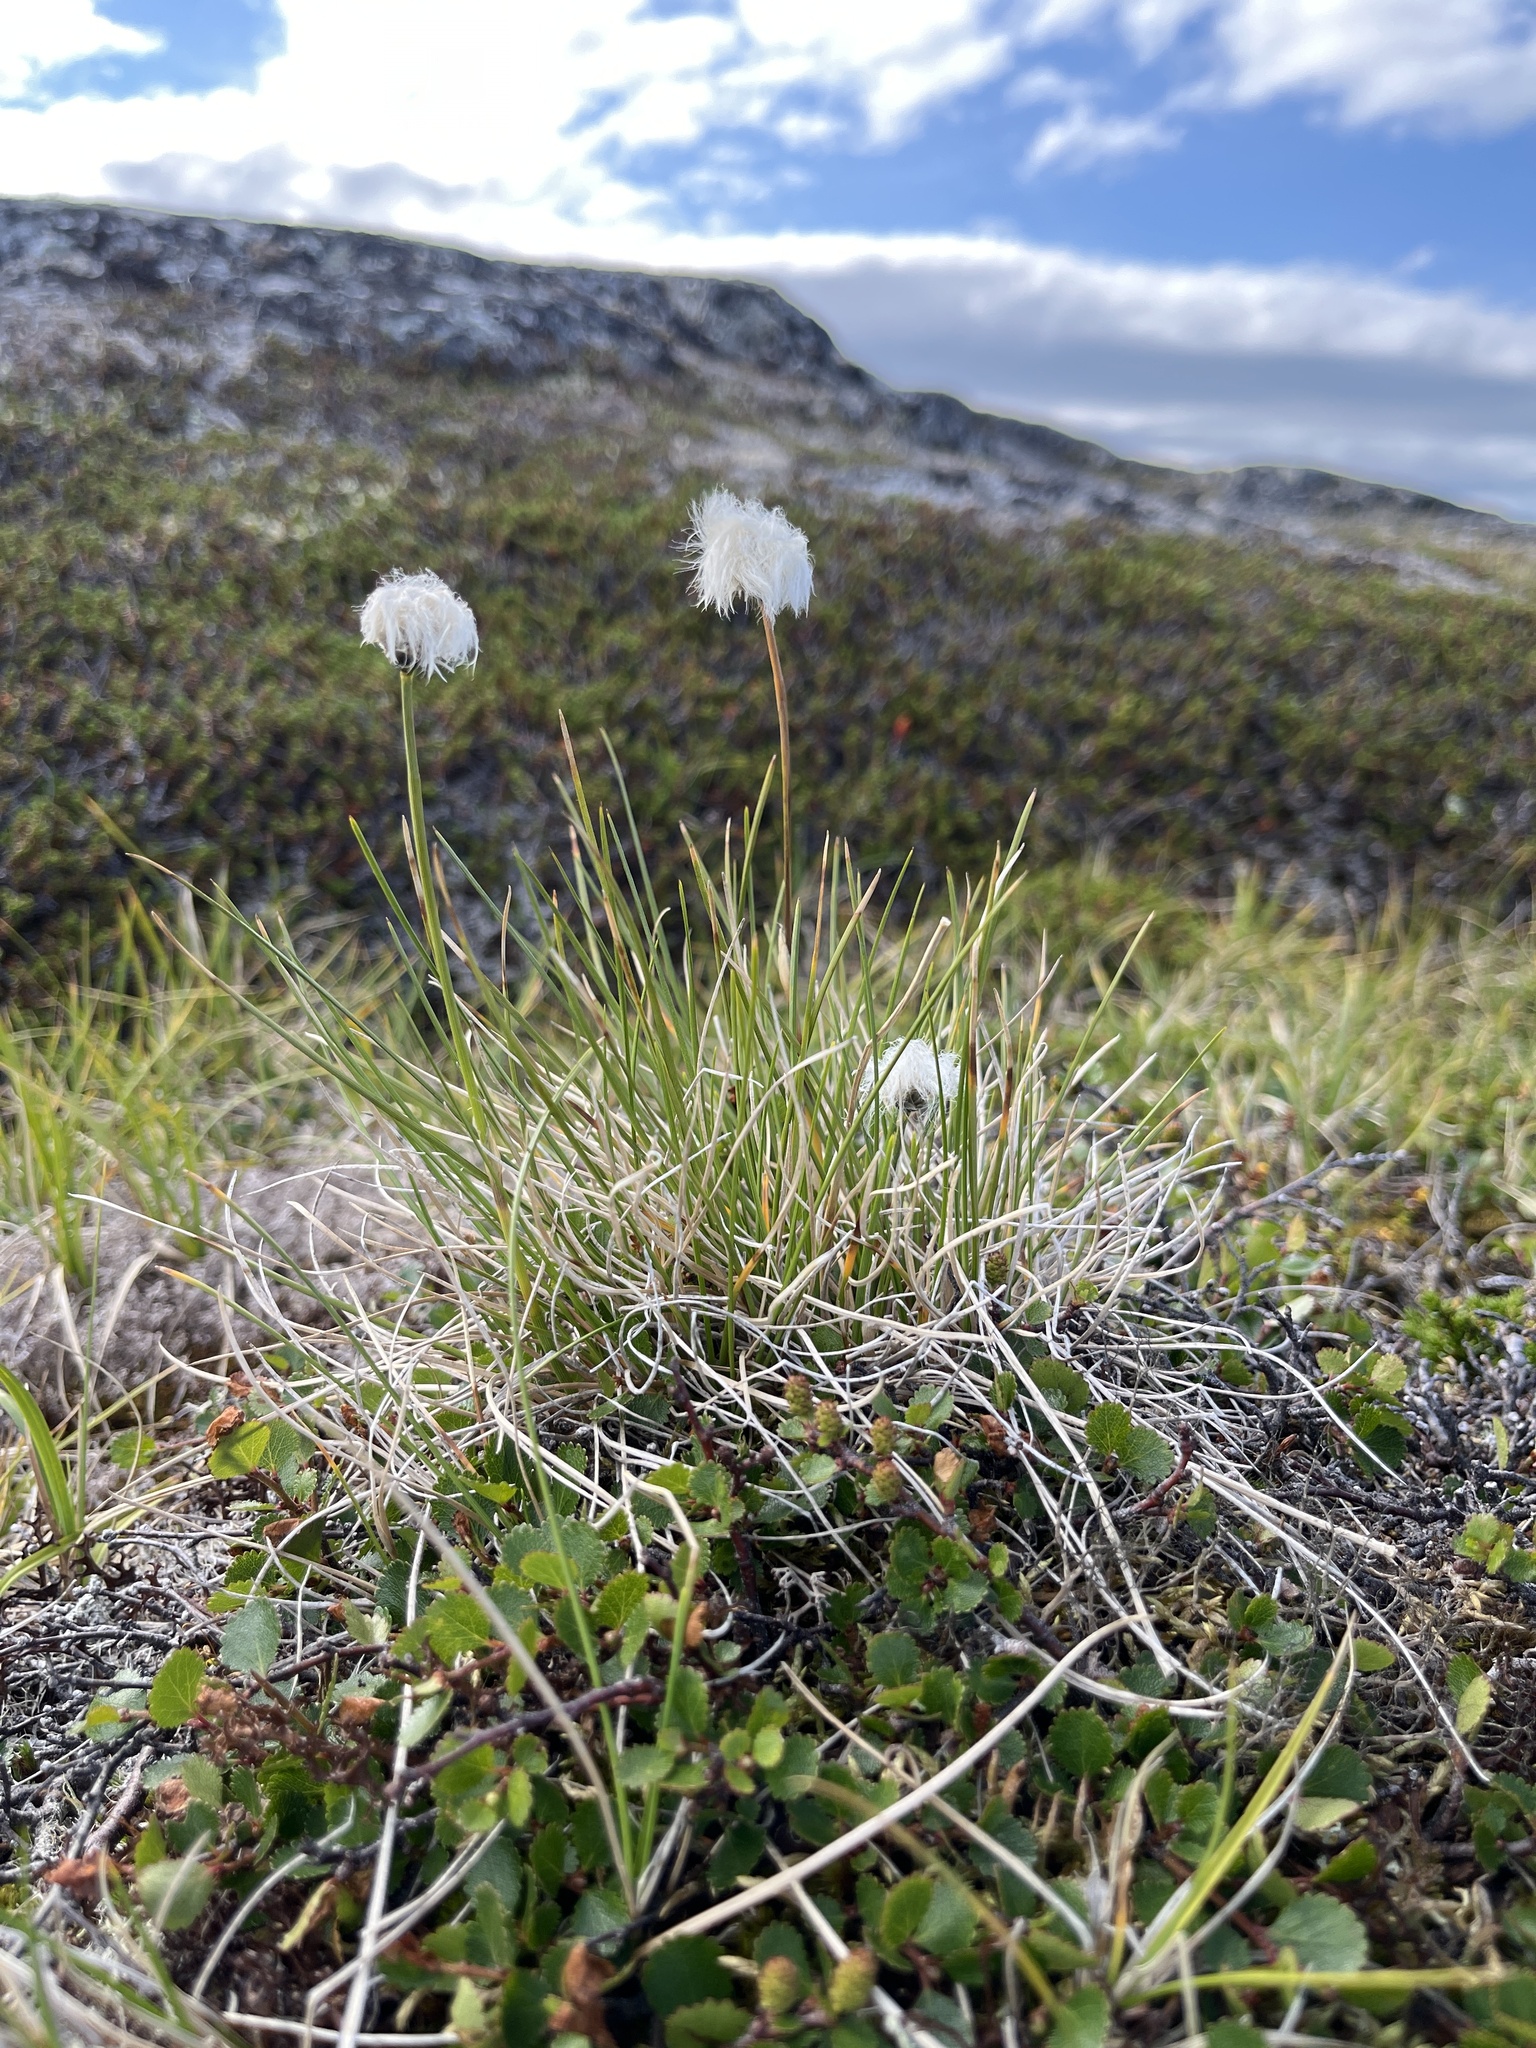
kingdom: Plantae
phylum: Tracheophyta
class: Liliopsida
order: Poales
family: Cyperaceae
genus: Eriophorum
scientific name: Eriophorum vaginatum
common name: Hare's-tail cottongrass
